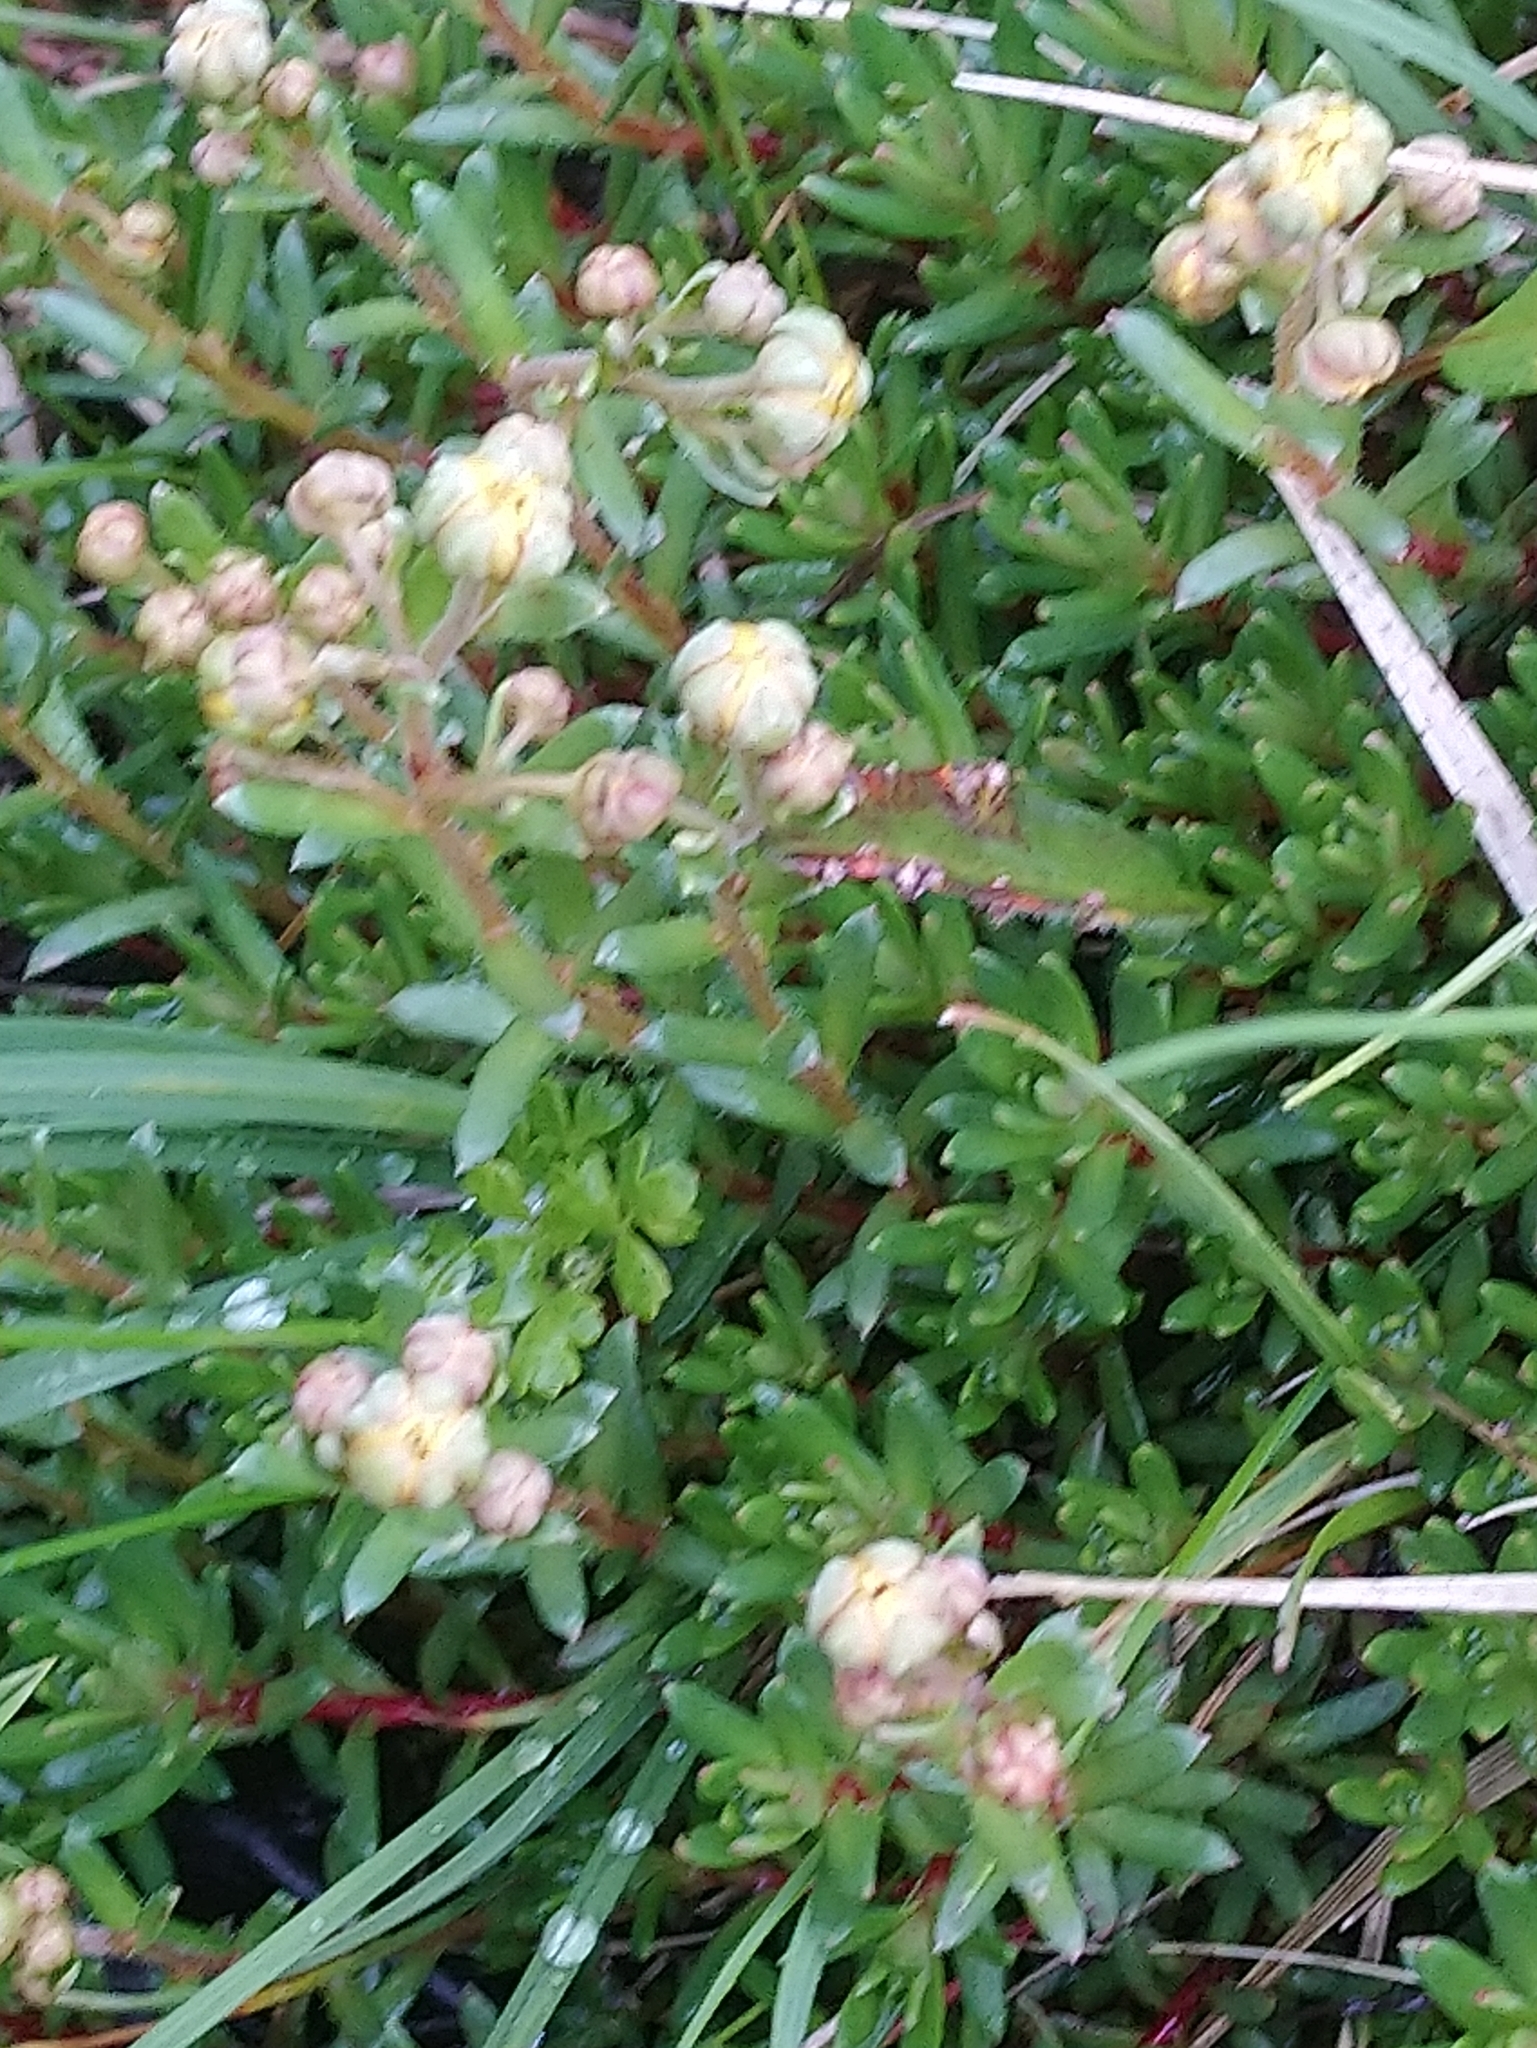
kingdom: Plantae
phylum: Tracheophyta
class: Magnoliopsida
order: Saxifragales
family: Saxifragaceae
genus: Saxifraga
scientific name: Saxifraga aizoides
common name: Yellow mountain saxifrage
